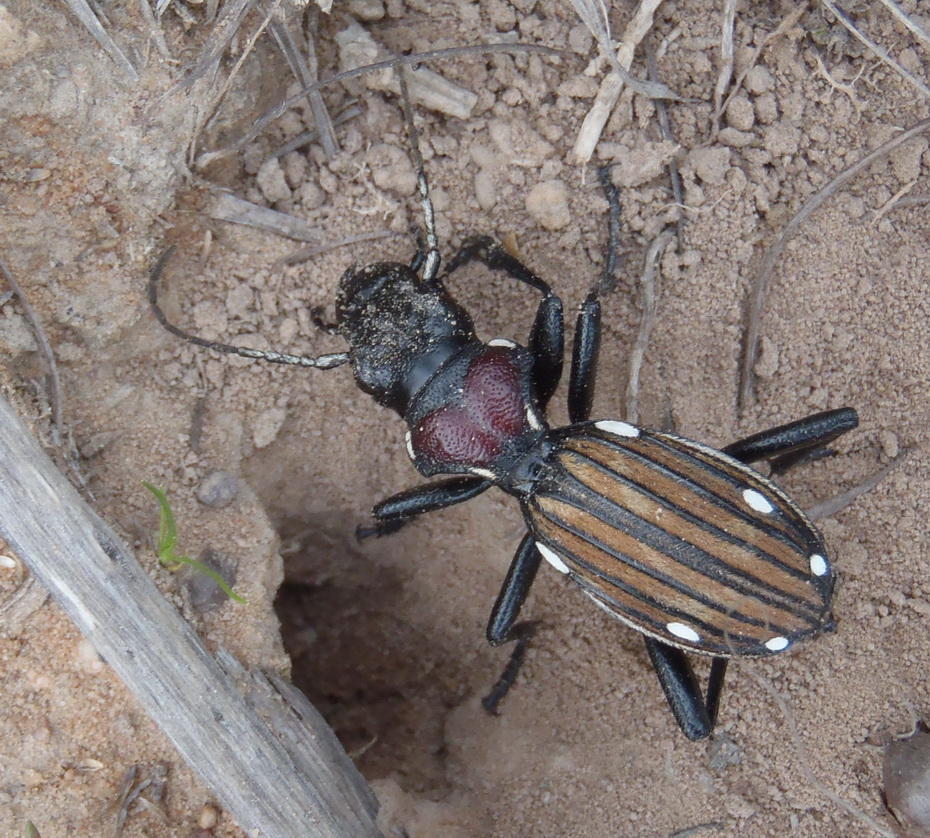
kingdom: Animalia
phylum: Arthropoda
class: Insecta
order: Coleoptera
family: Carabidae
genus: Anthia
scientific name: Anthia decemguttata
